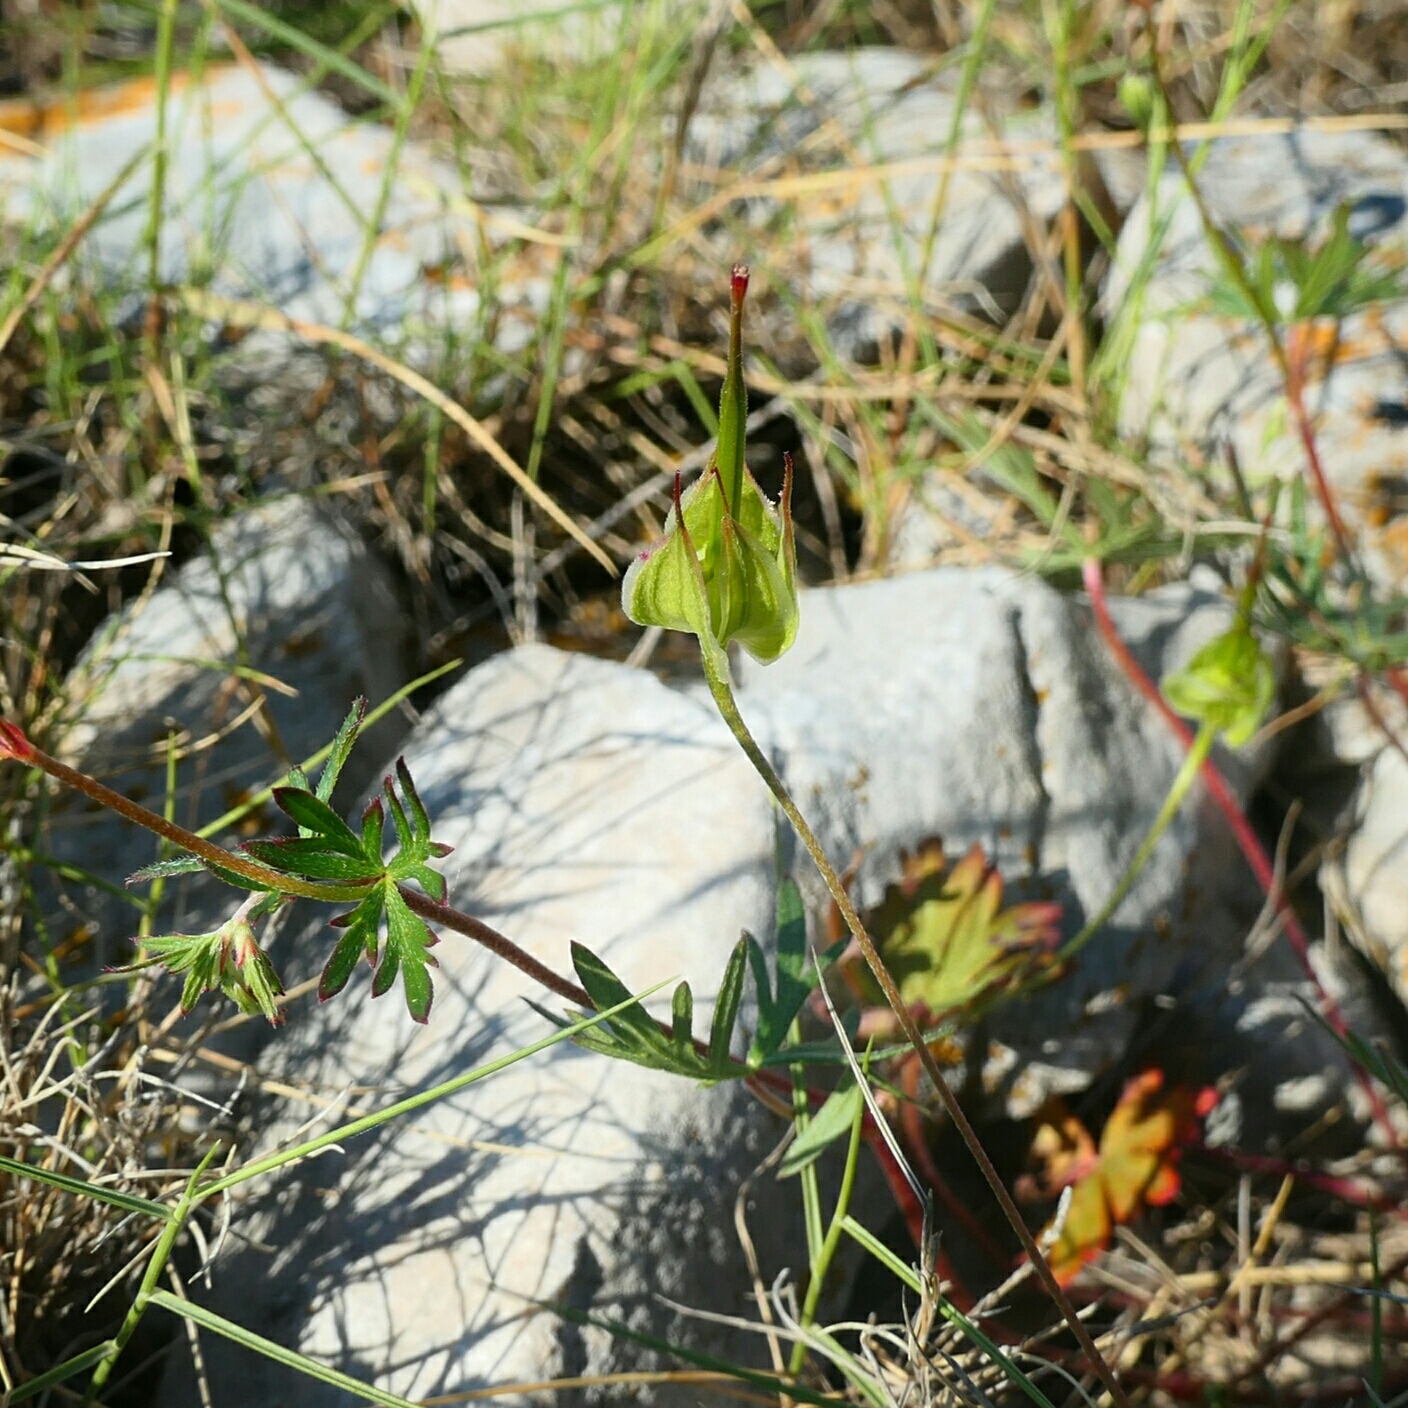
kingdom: Plantae
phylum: Tracheophyta
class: Magnoliopsida
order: Geraniales
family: Geraniaceae
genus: Geranium
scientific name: Geranium columbinum
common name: Long-stalked crane's-bill
